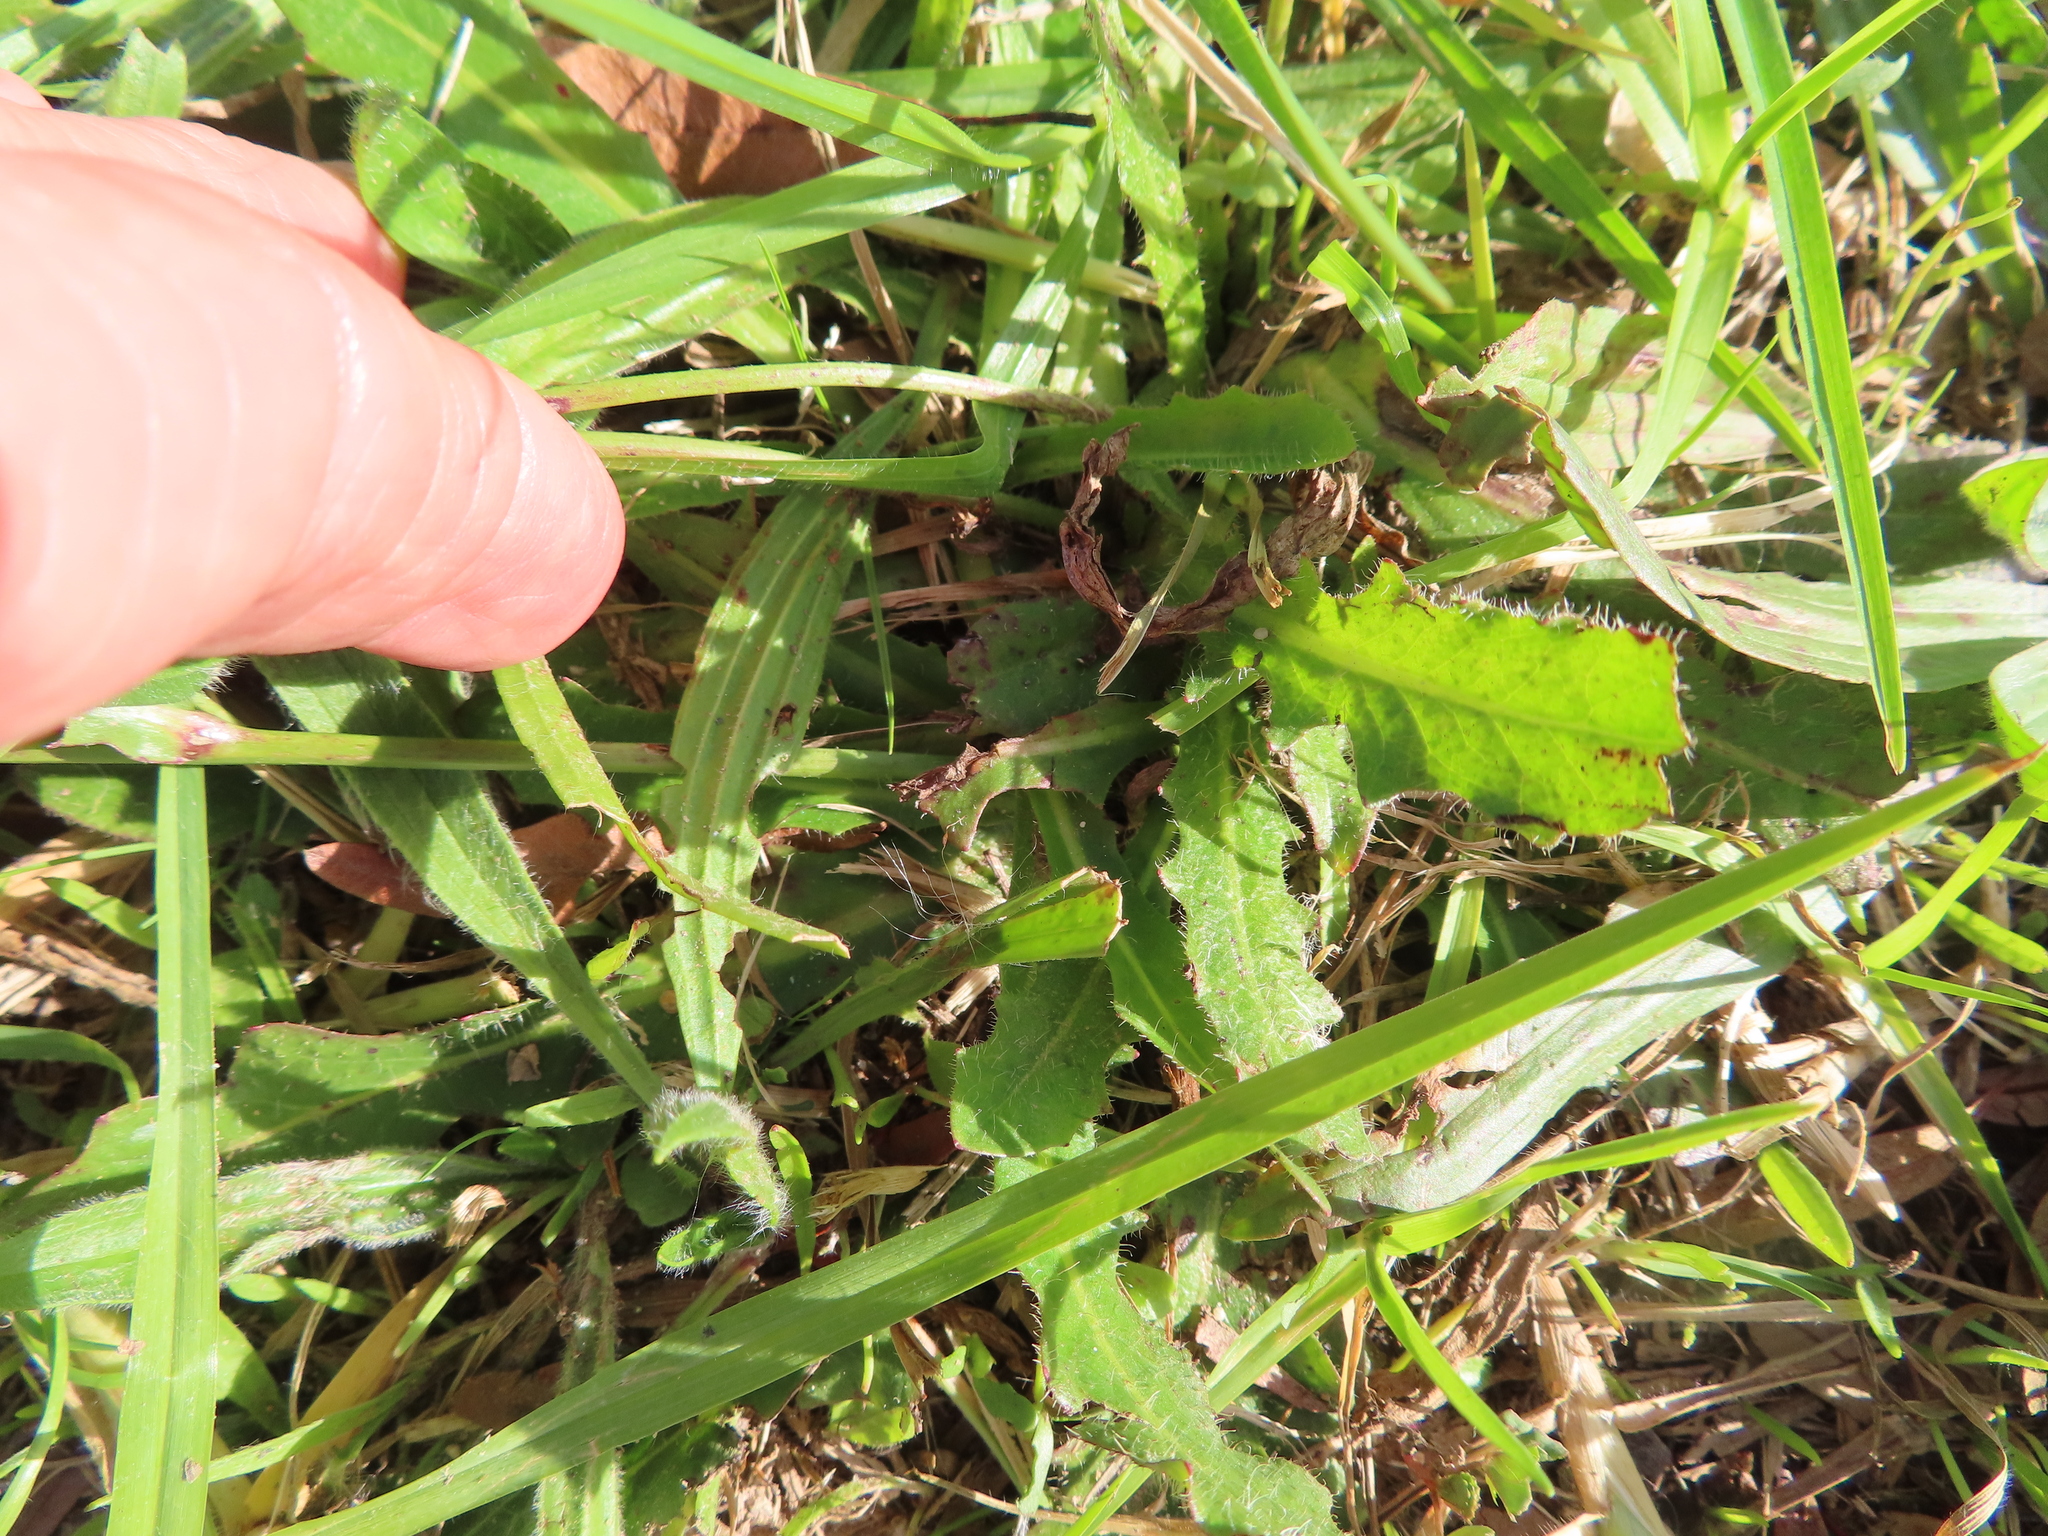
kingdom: Plantae
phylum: Tracheophyta
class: Magnoliopsida
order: Asterales
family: Asteraceae
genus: Hypochaeris
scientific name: Hypochaeris radicata
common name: Flatweed
